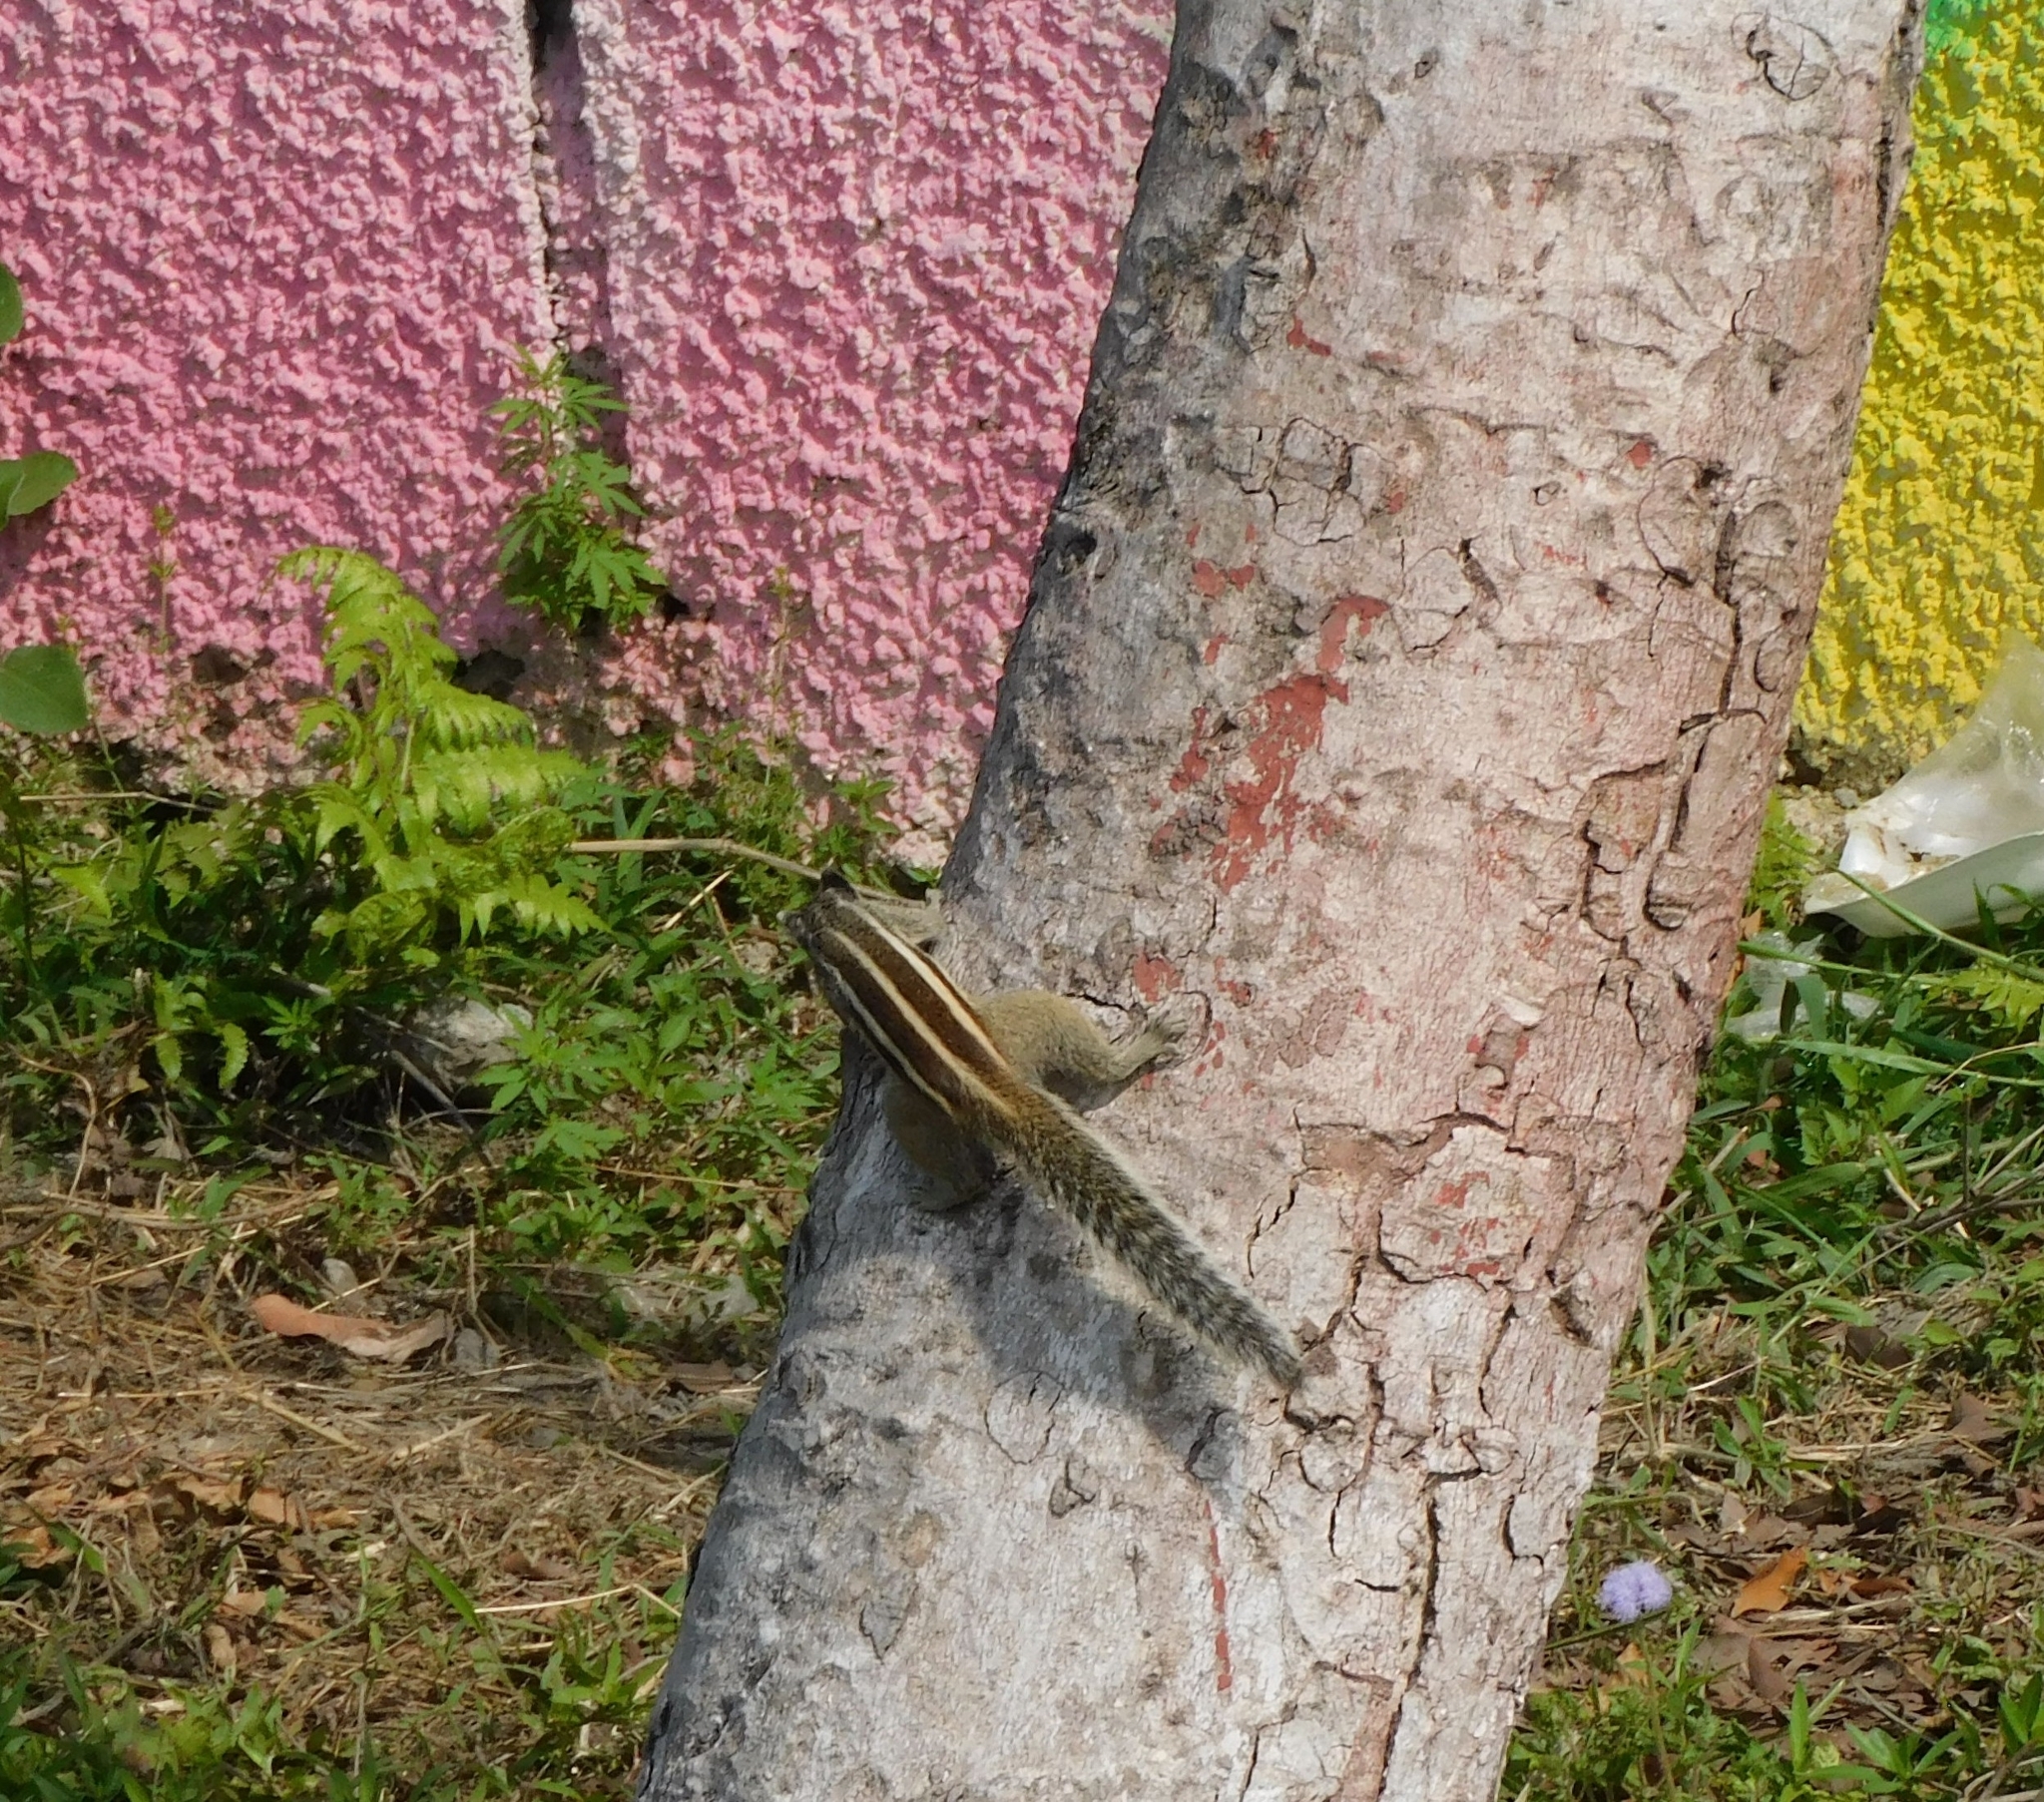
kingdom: Animalia
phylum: Chordata
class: Mammalia
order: Rodentia
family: Sciuridae
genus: Funambulus
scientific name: Funambulus pennantii
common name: Northern palm squirrel
